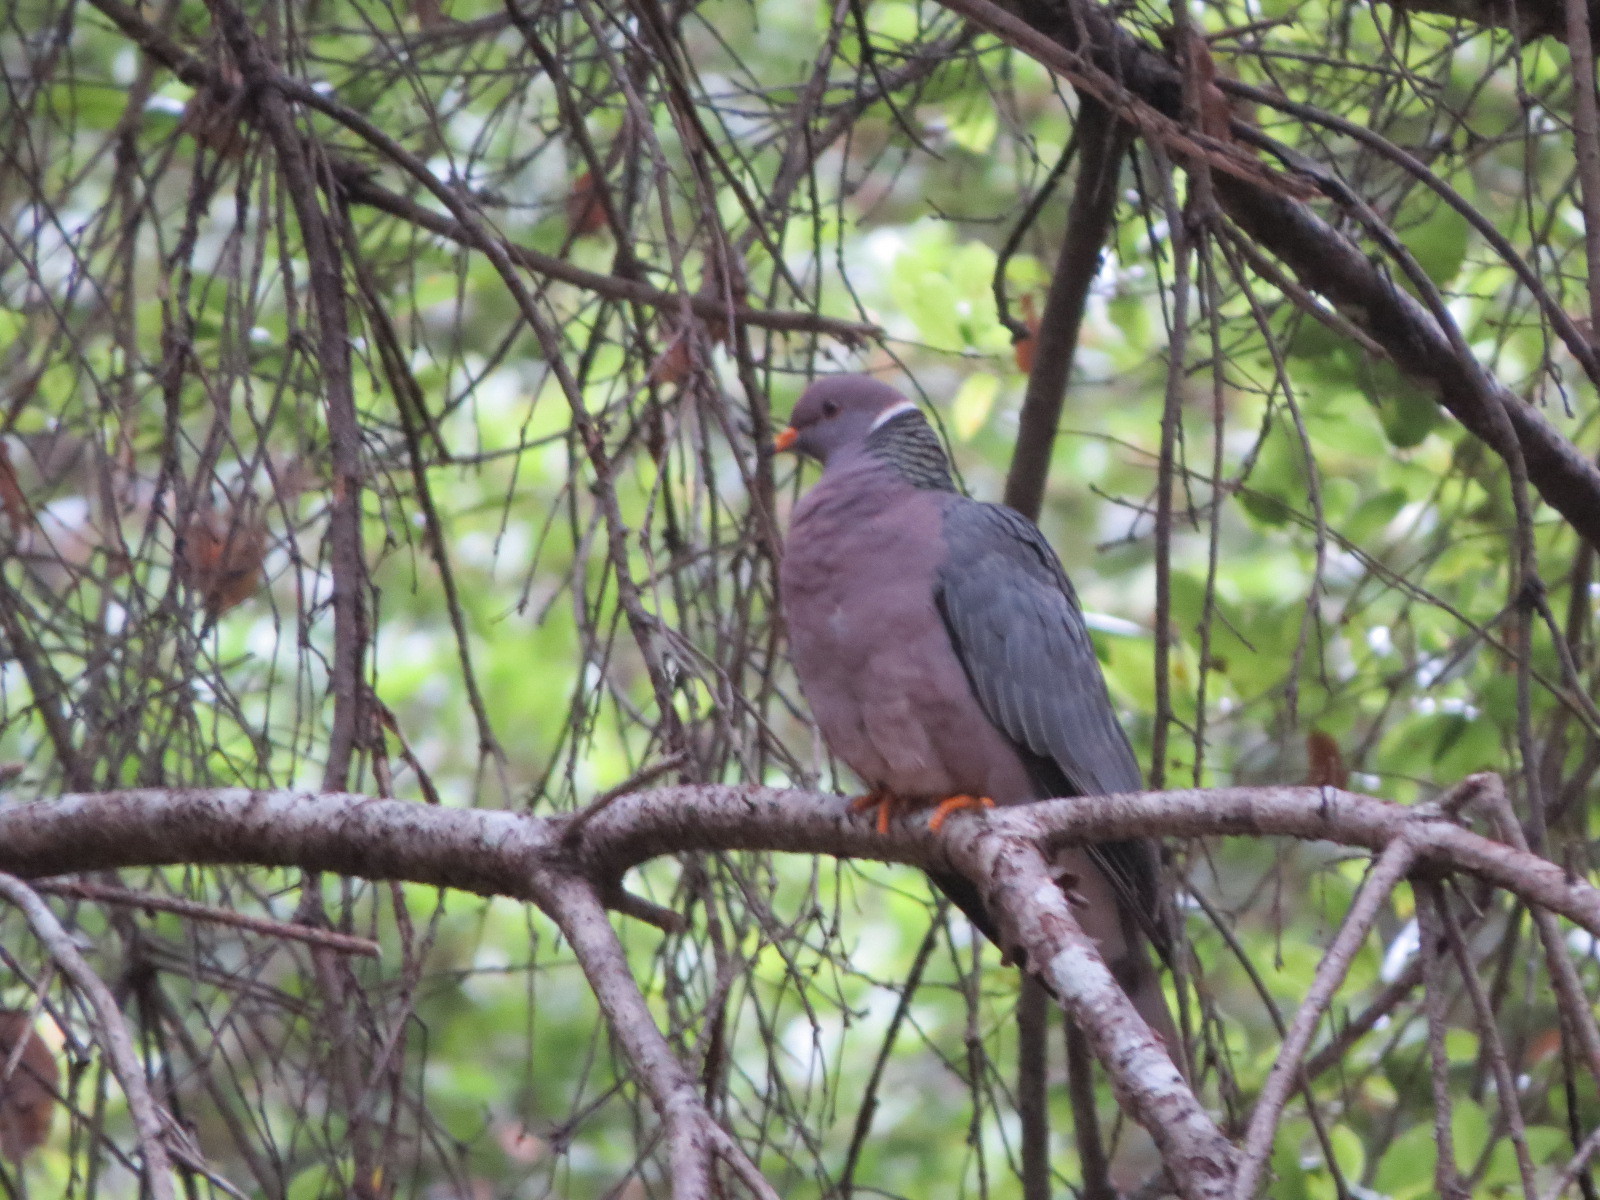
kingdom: Animalia
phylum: Chordata
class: Aves
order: Columbiformes
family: Columbidae
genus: Patagioenas
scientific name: Patagioenas fasciata
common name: Band-tailed pigeon
